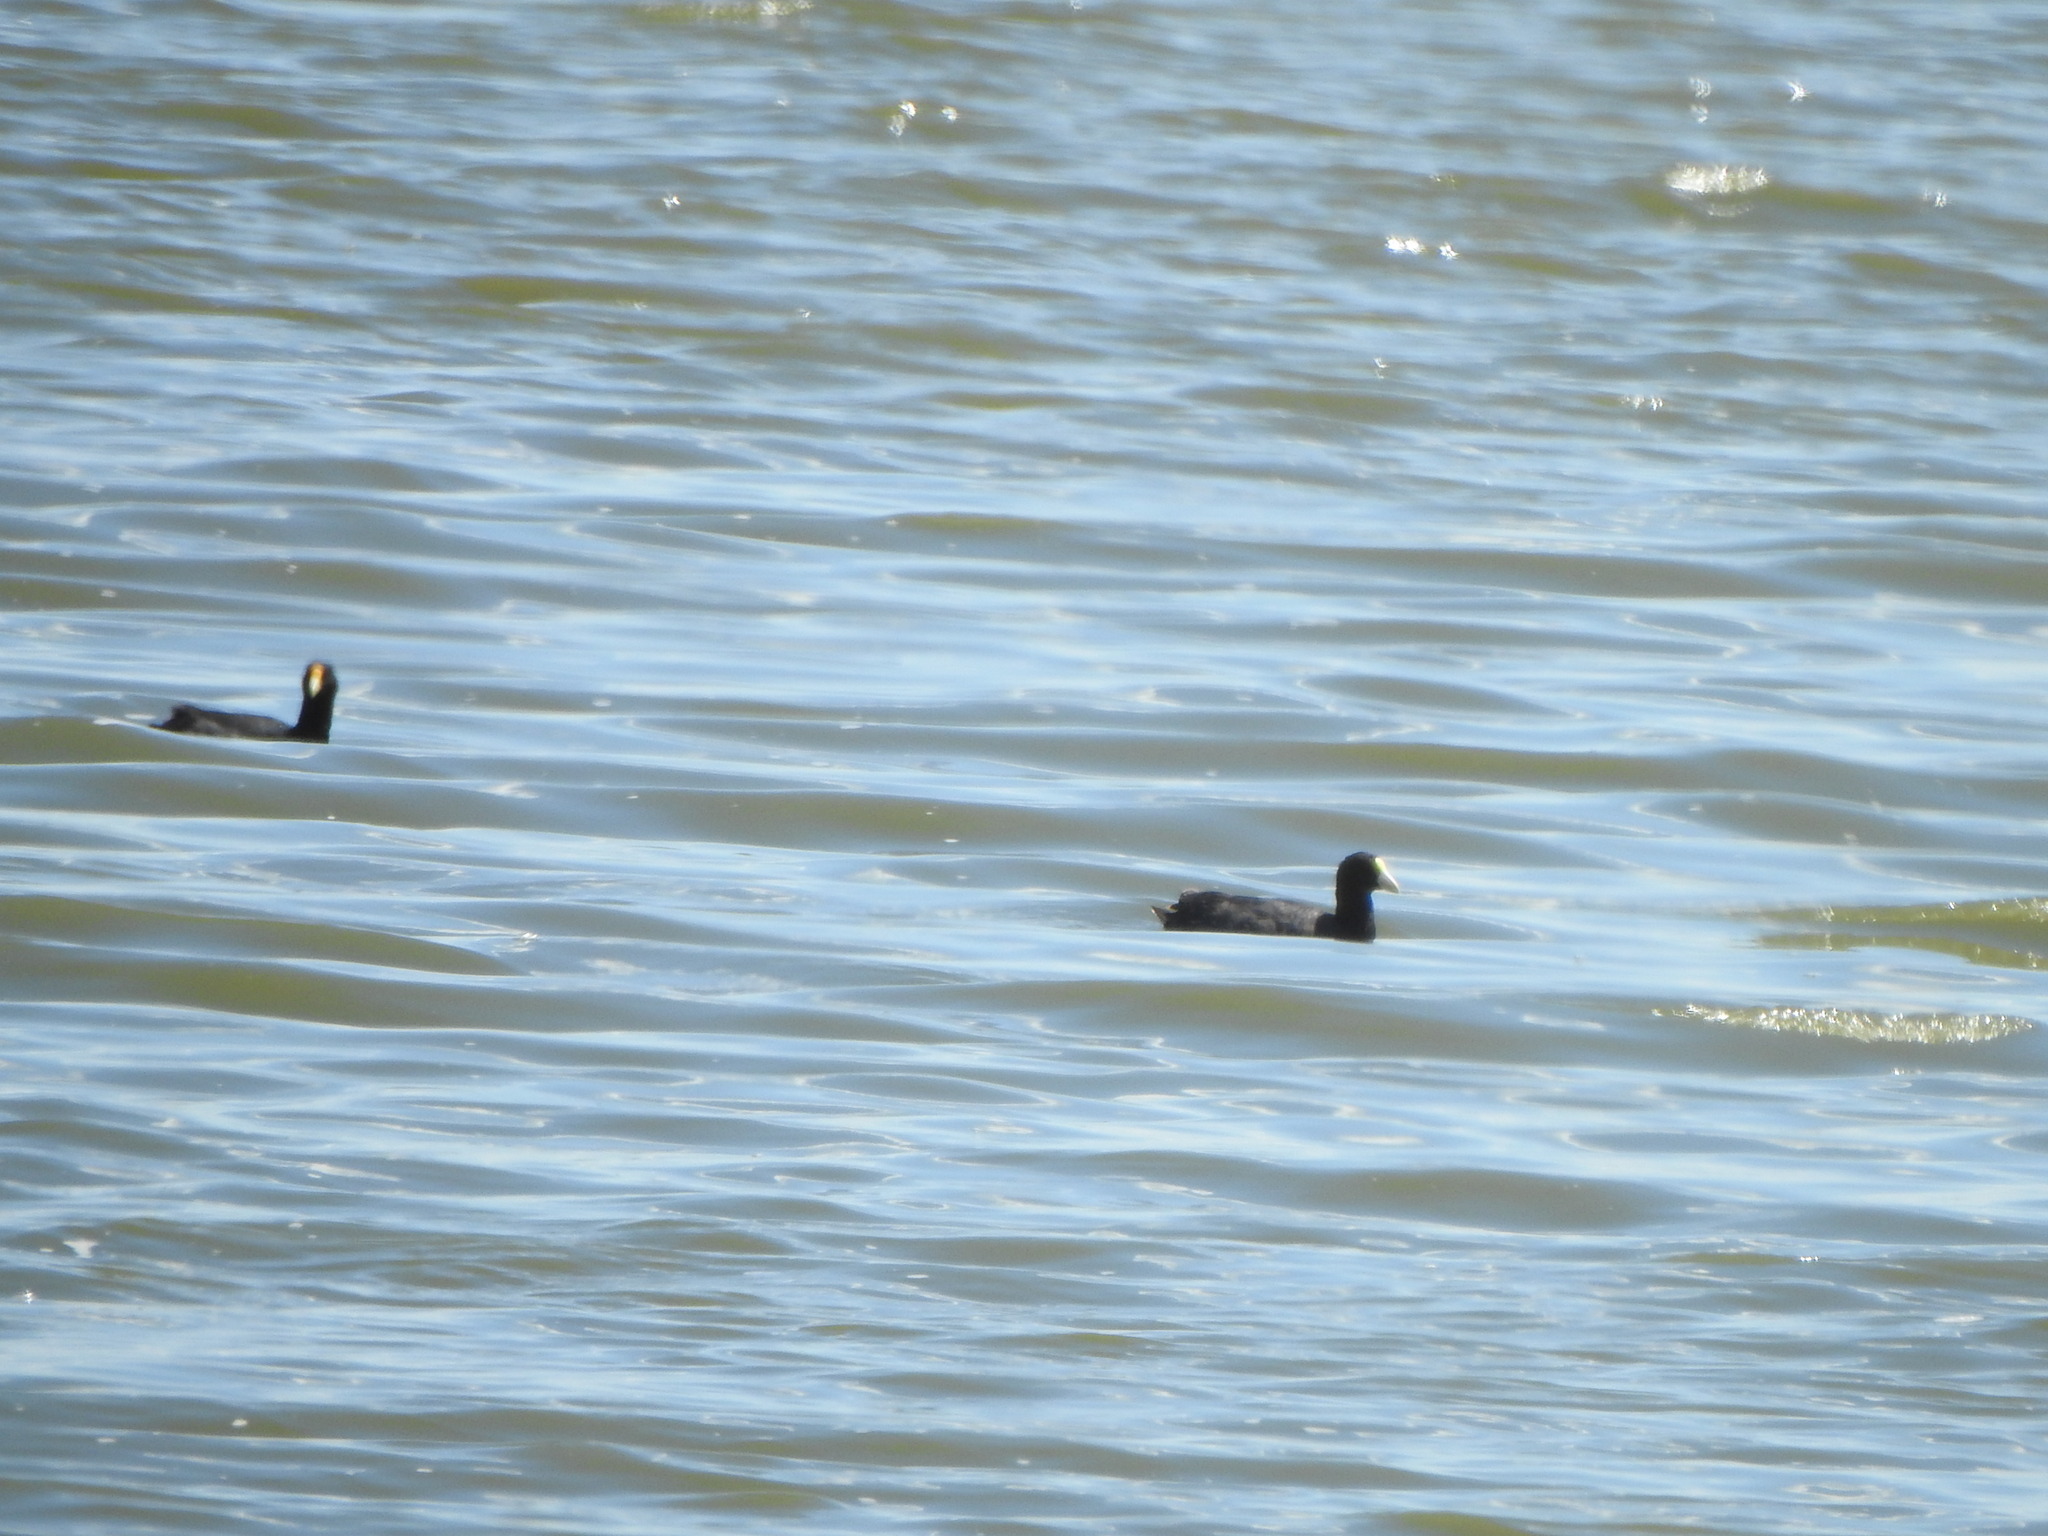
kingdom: Animalia
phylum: Chordata
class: Aves
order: Gruiformes
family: Rallidae
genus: Fulica
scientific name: Fulica leucoptera
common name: White-winged coot
